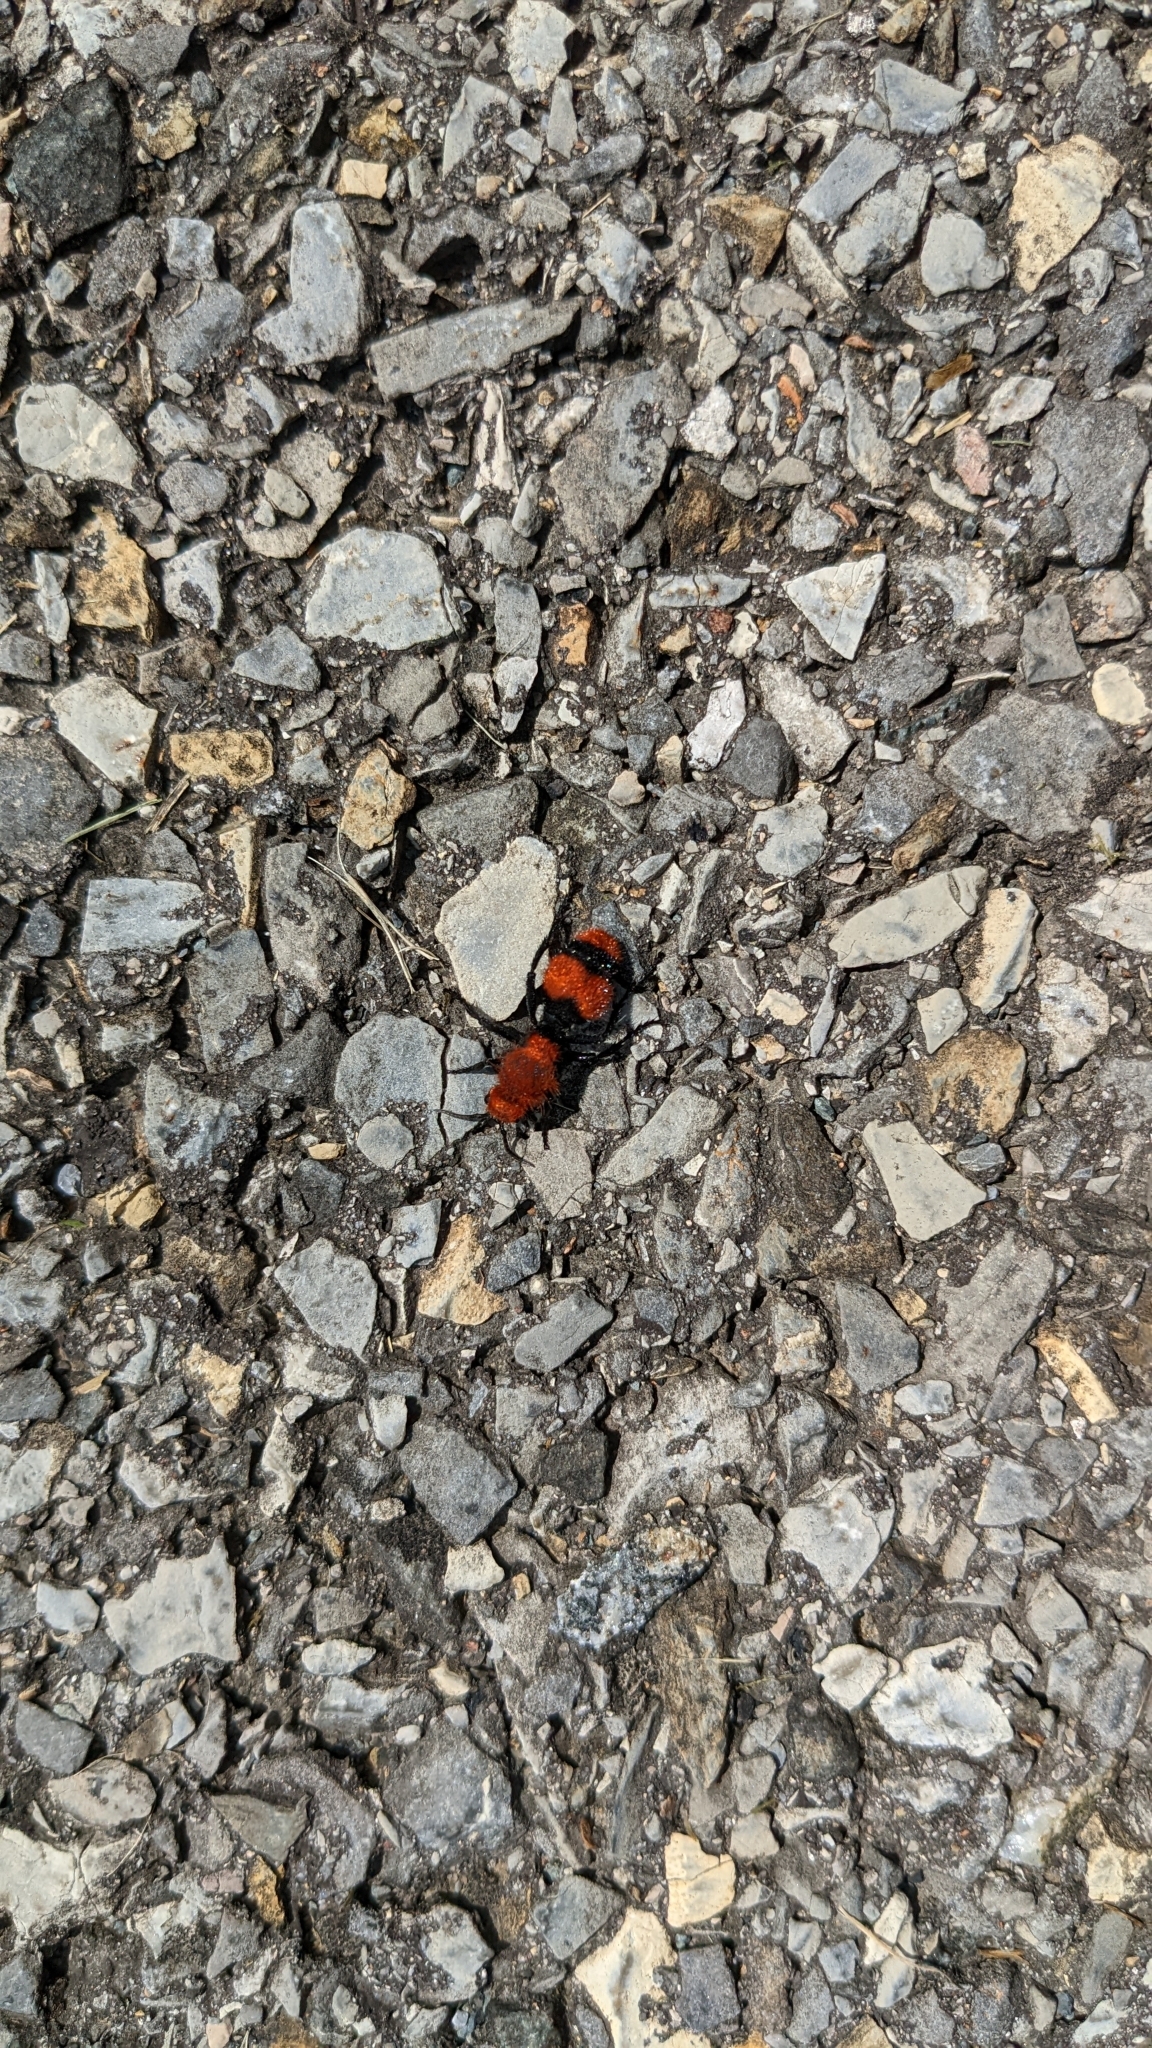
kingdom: Animalia
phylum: Arthropoda
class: Insecta
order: Hymenoptera
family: Mutillidae
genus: Dasymutilla
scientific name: Dasymutilla occidentalis
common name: Common eastern velvet ant
